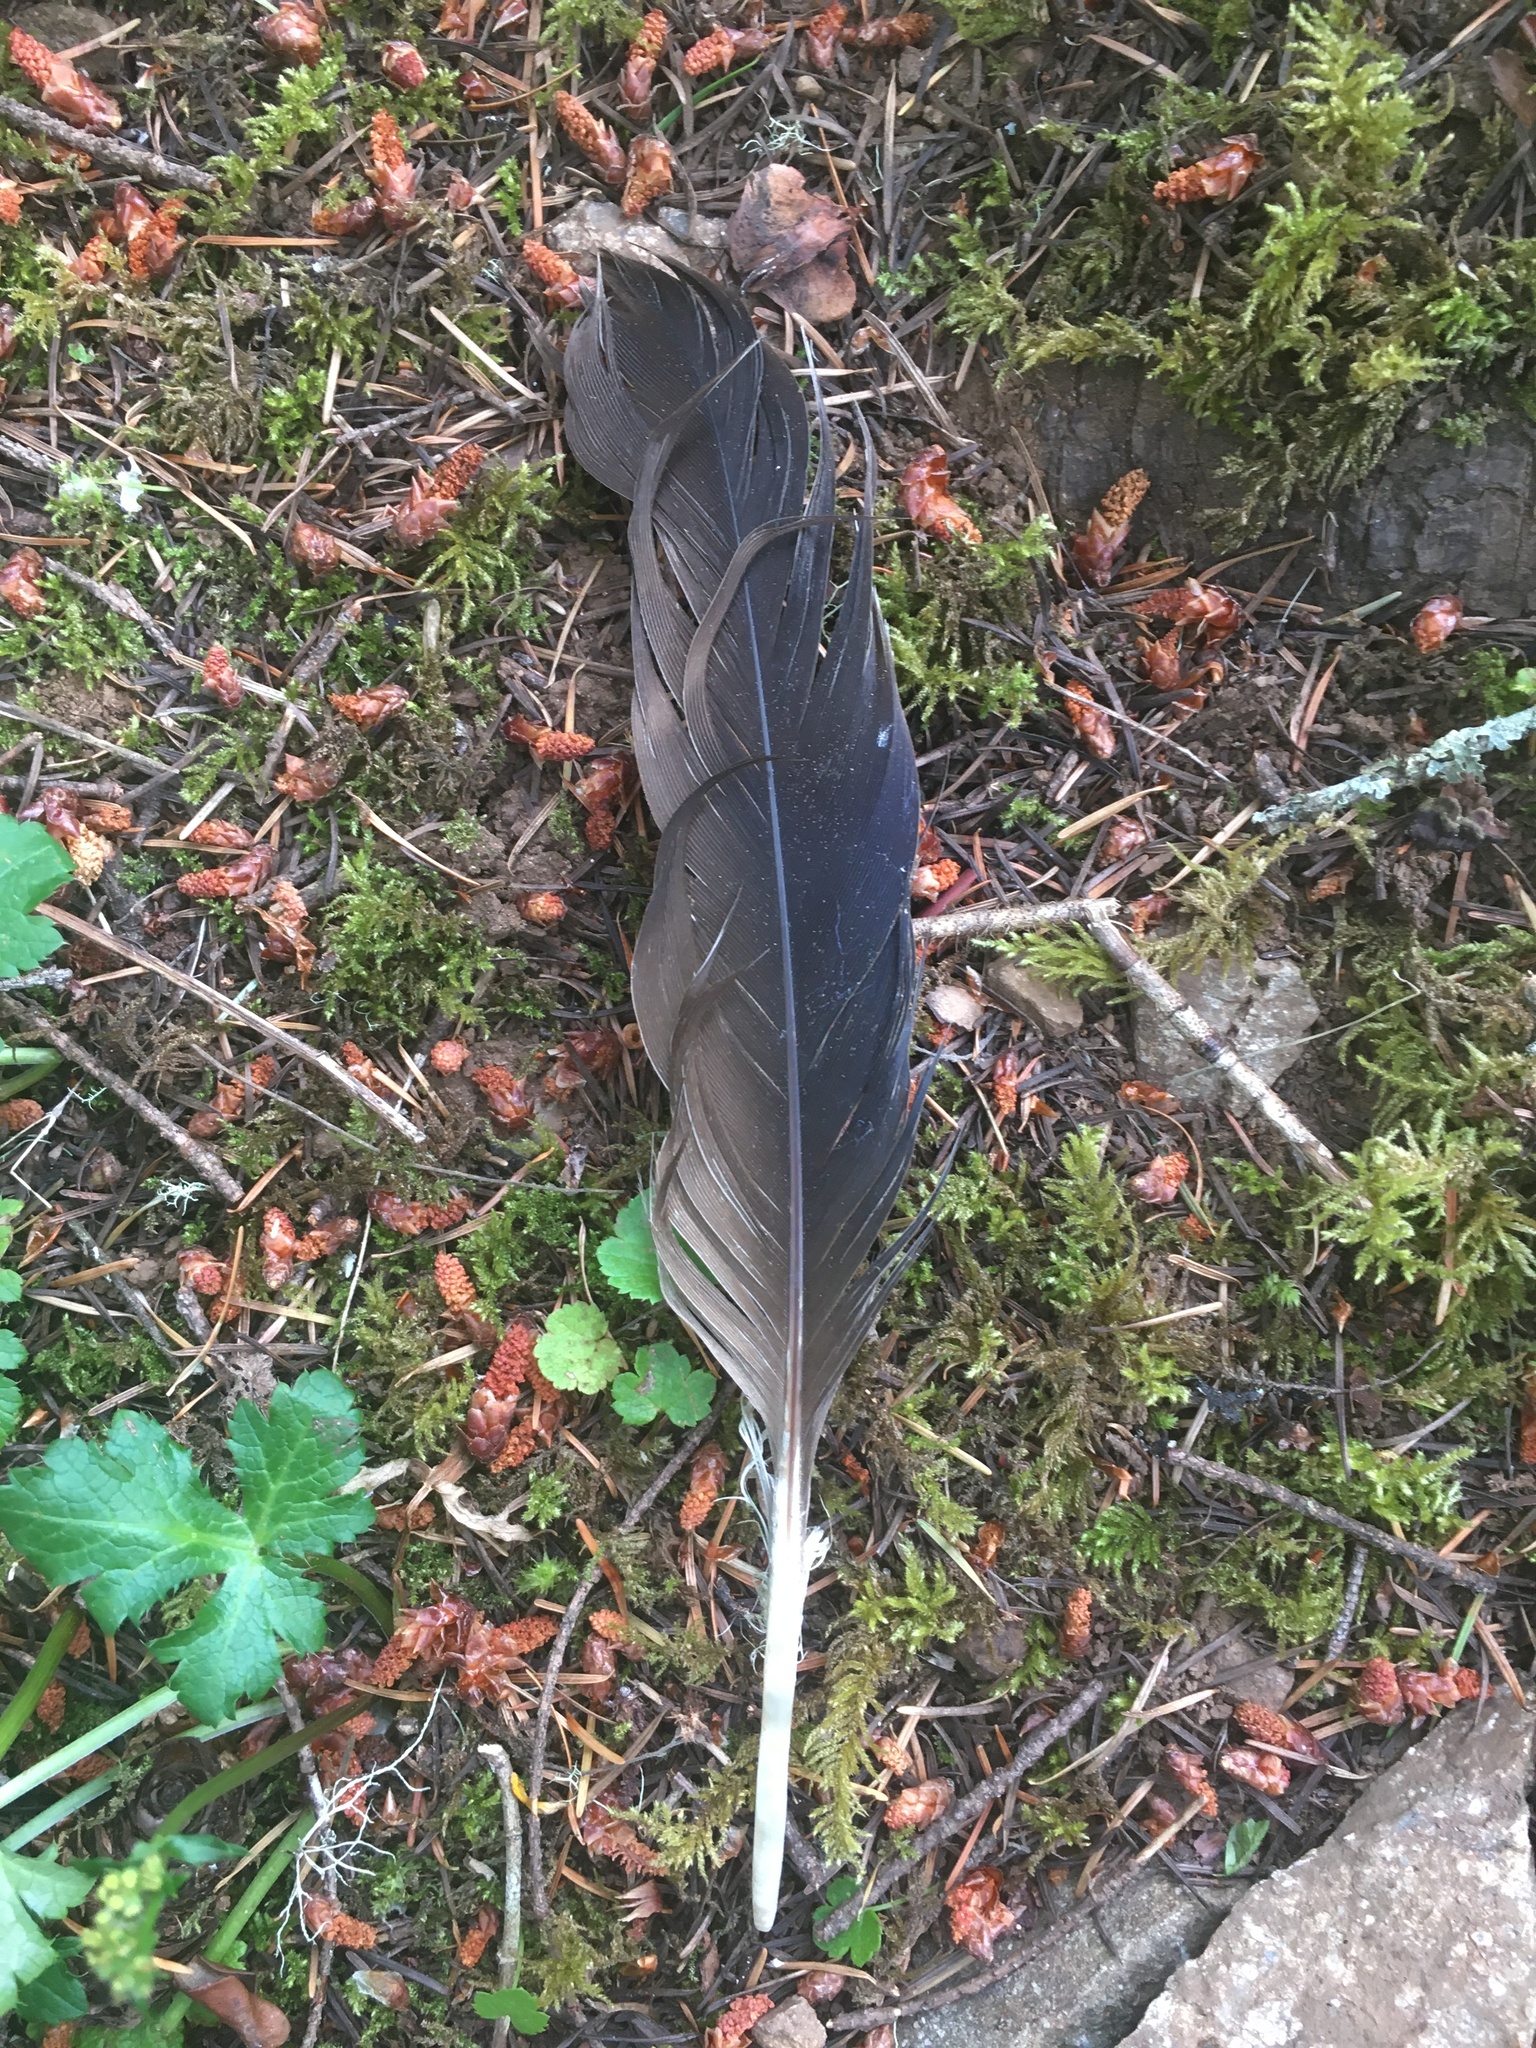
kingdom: Animalia
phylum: Chordata
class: Aves
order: Accipitriformes
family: Cathartidae
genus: Cathartes
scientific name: Cathartes aura
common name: Turkey vulture
